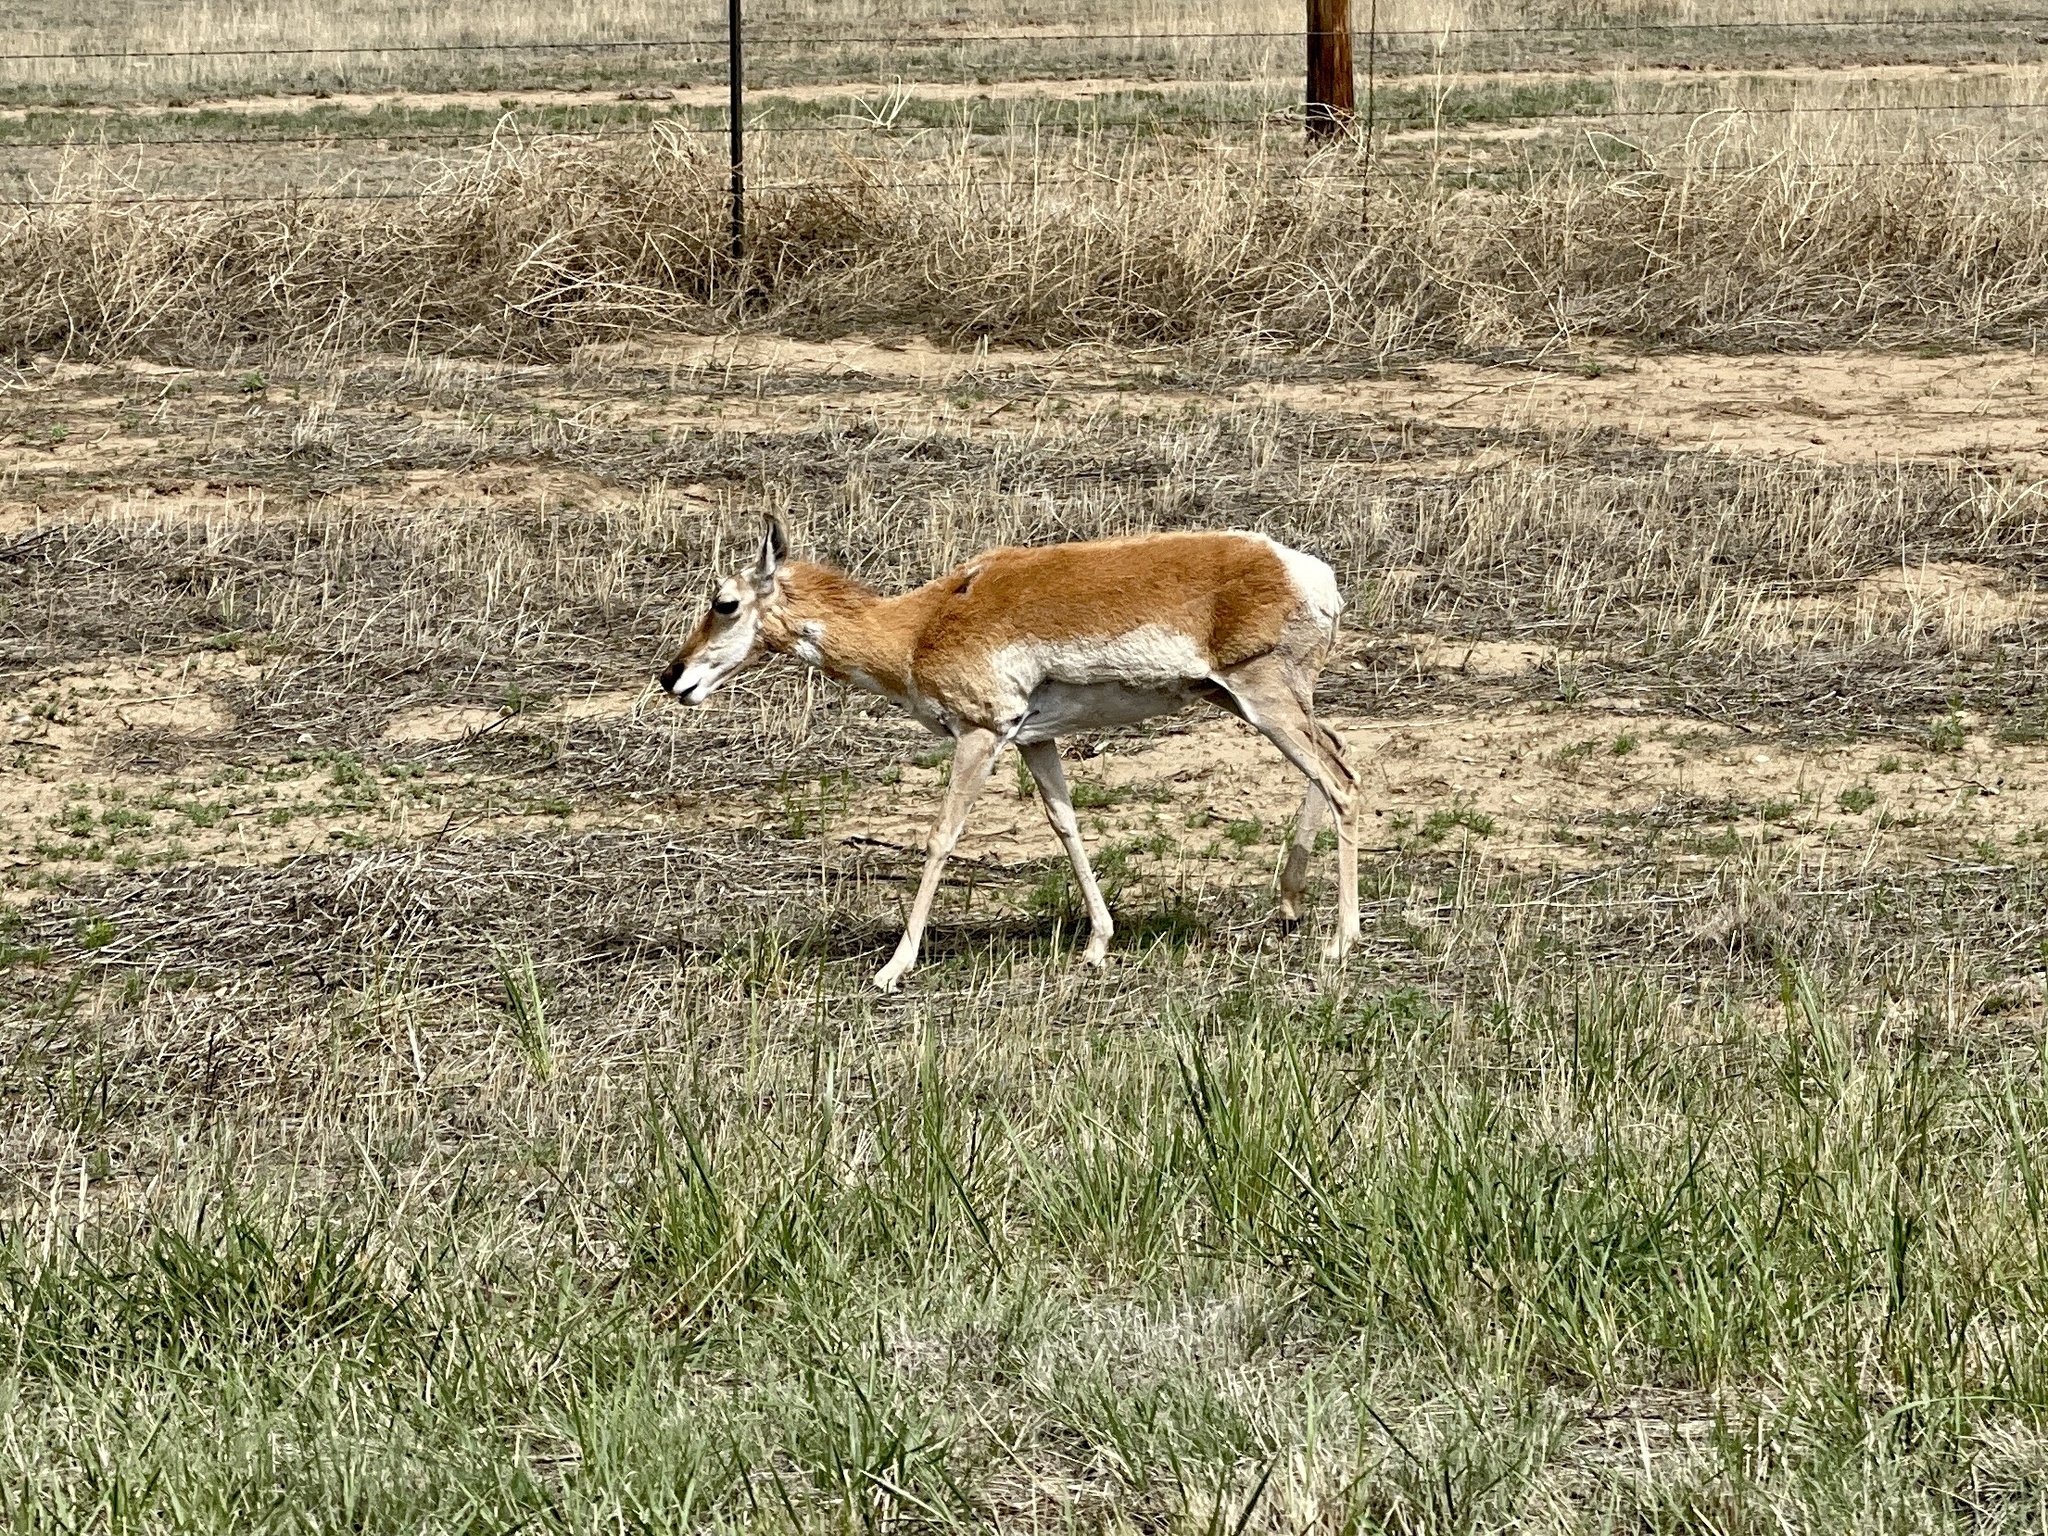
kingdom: Animalia
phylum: Chordata
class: Mammalia
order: Artiodactyla
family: Antilocapridae
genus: Antilocapra
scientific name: Antilocapra americana
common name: Pronghorn
